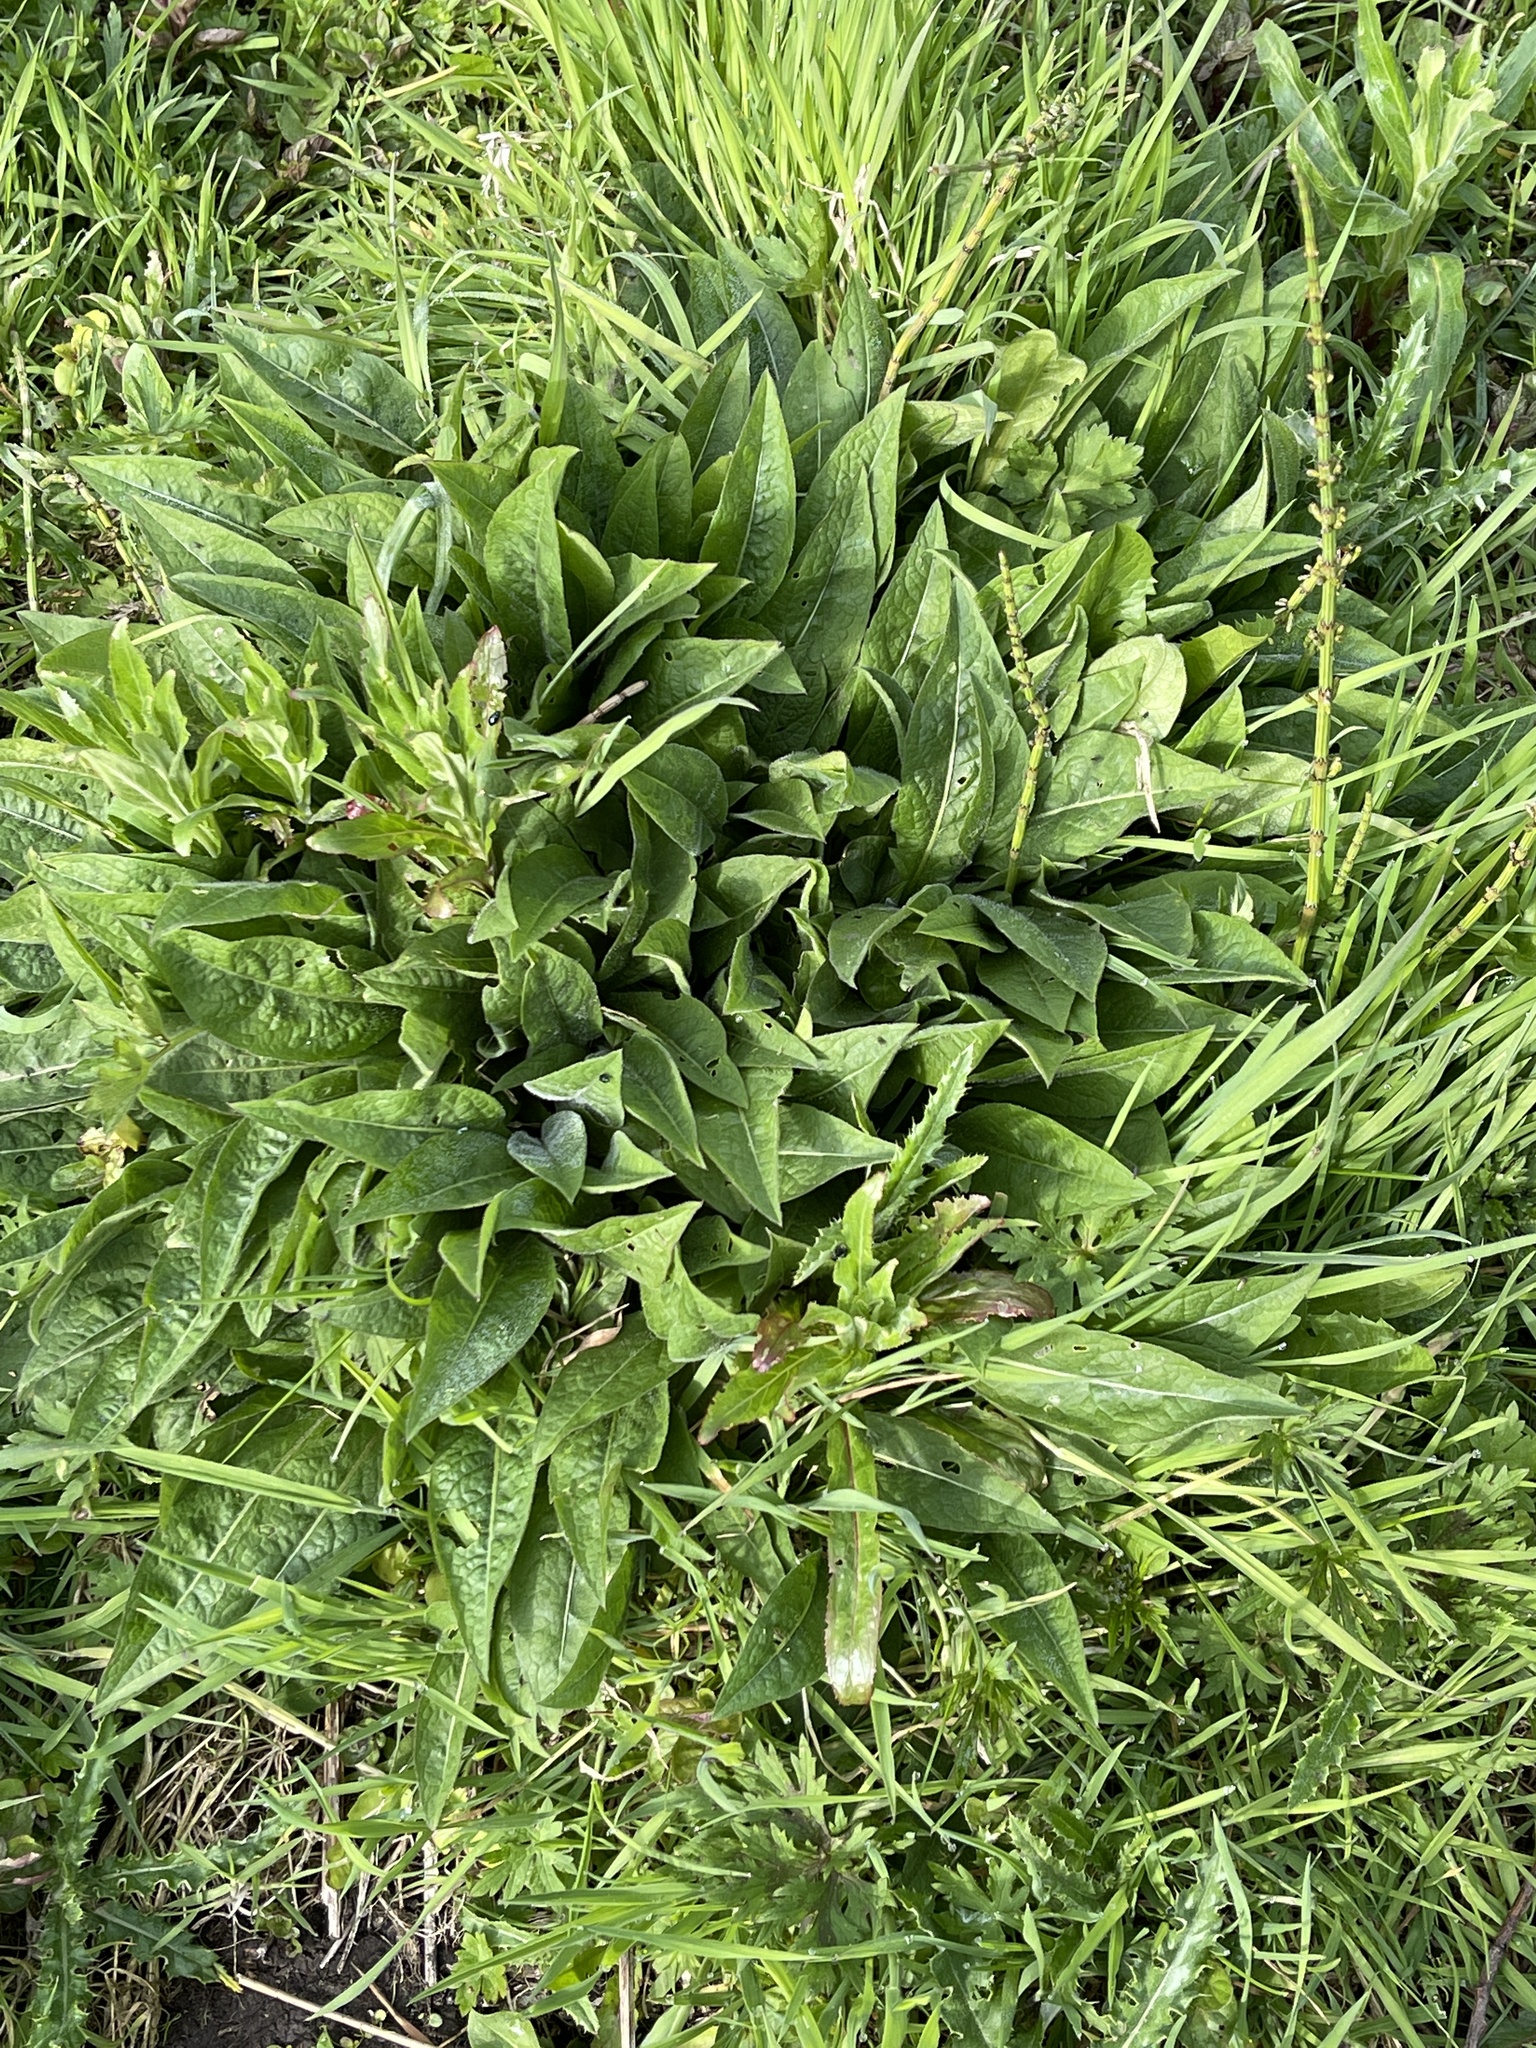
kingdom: Plantae
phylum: Tracheophyta
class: Magnoliopsida
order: Asterales
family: Asteraceae
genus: Centaurea
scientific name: Centaurea nigra
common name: Lesser knapweed
